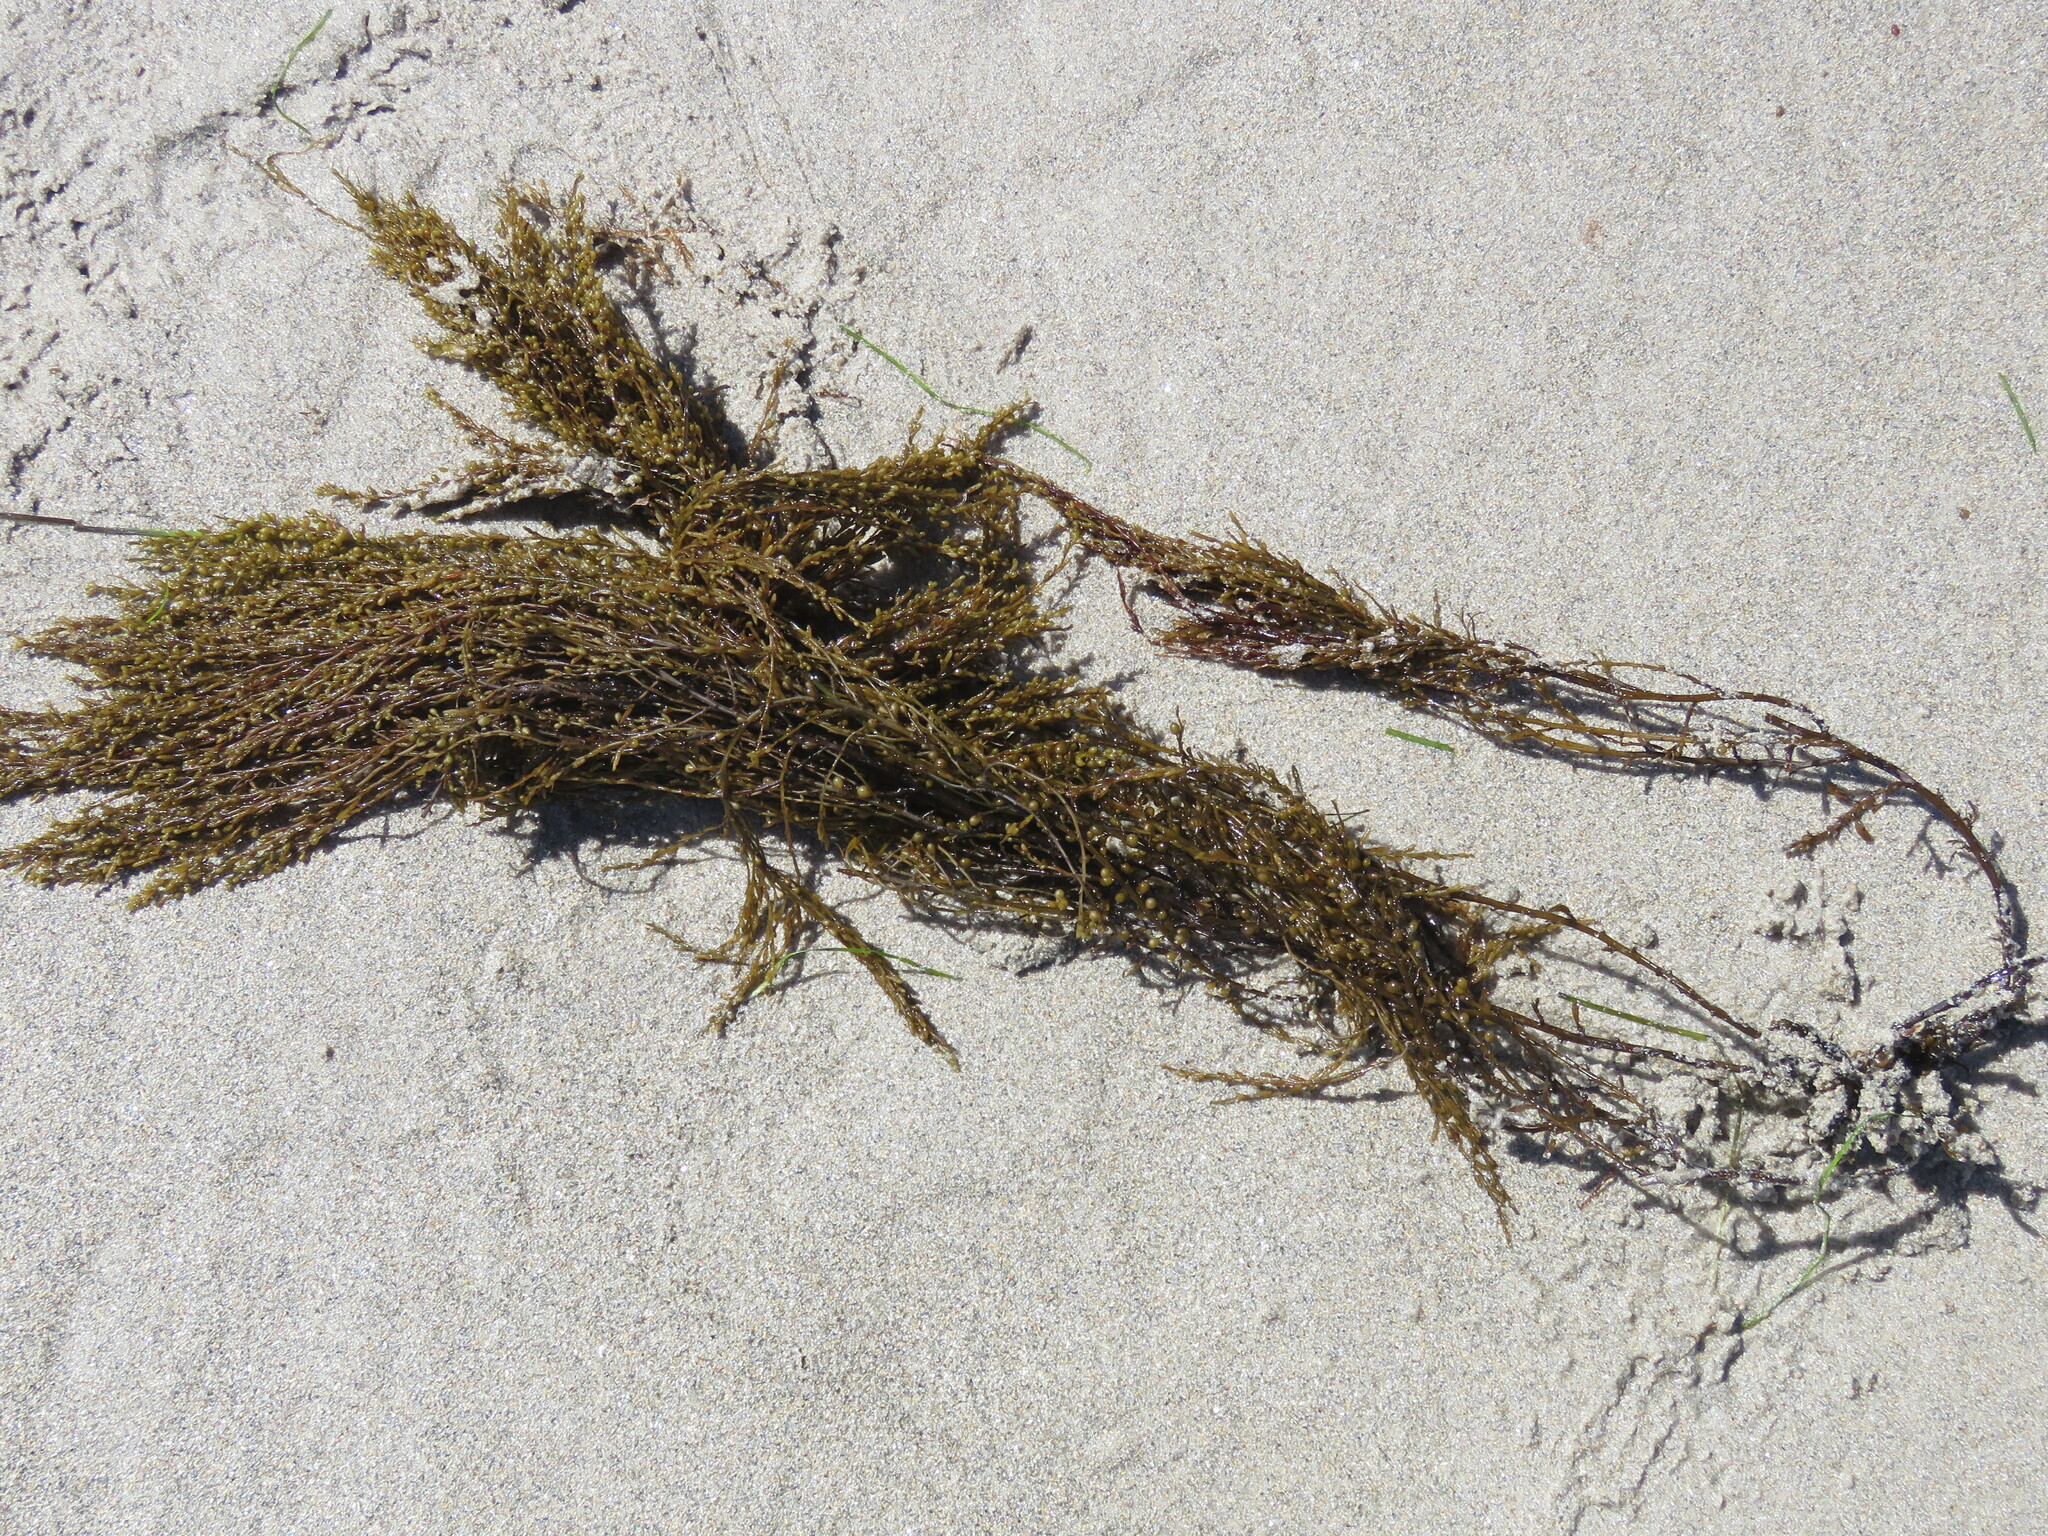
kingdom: Chromista
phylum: Ochrophyta
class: Phaeophyceae
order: Fucales
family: Sargassaceae
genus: Sargassum
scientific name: Sargassum muticum
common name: Japweed
